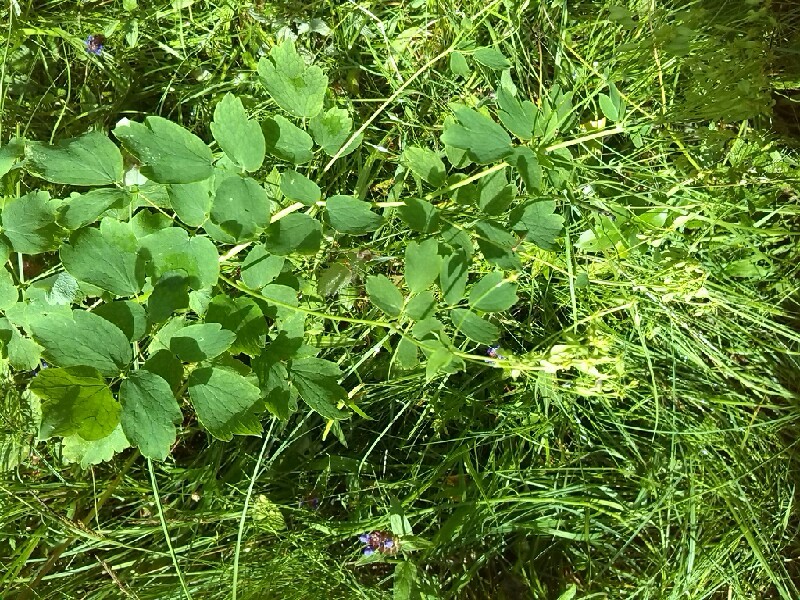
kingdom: Plantae
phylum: Tracheophyta
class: Magnoliopsida
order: Ranunculales
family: Ranunculaceae
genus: Thalictrum
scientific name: Thalictrum aquilegiifolium
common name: French meadow-rue
